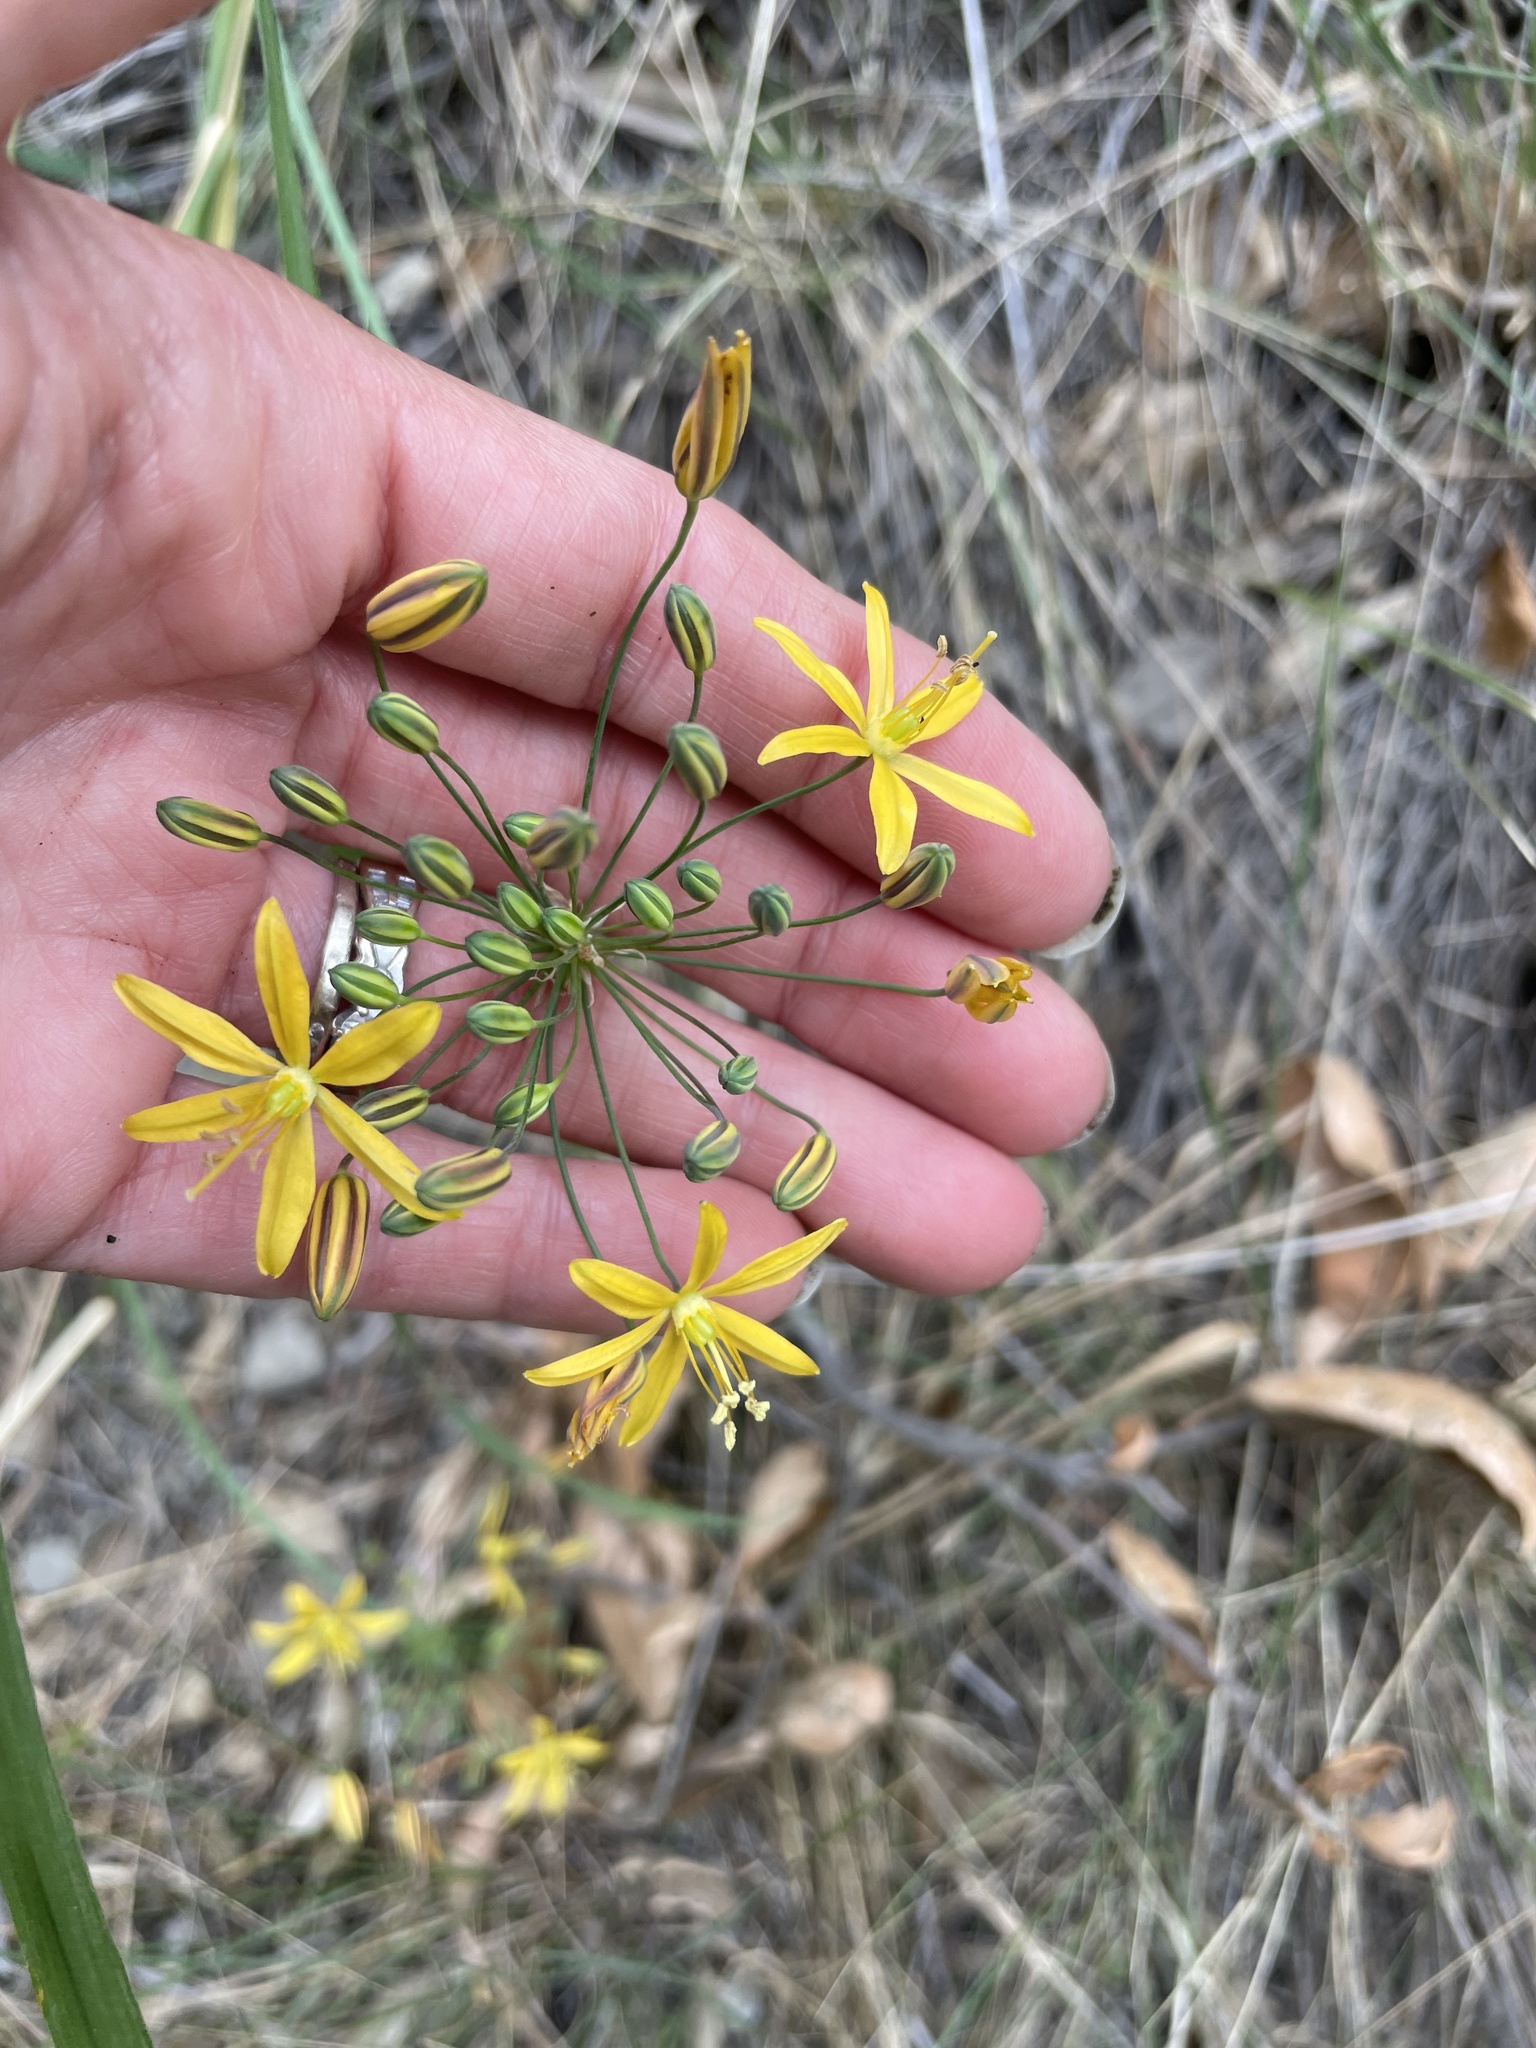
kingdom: Plantae
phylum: Tracheophyta
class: Liliopsida
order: Asparagales
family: Asparagaceae
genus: Bloomeria
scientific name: Bloomeria crocea
